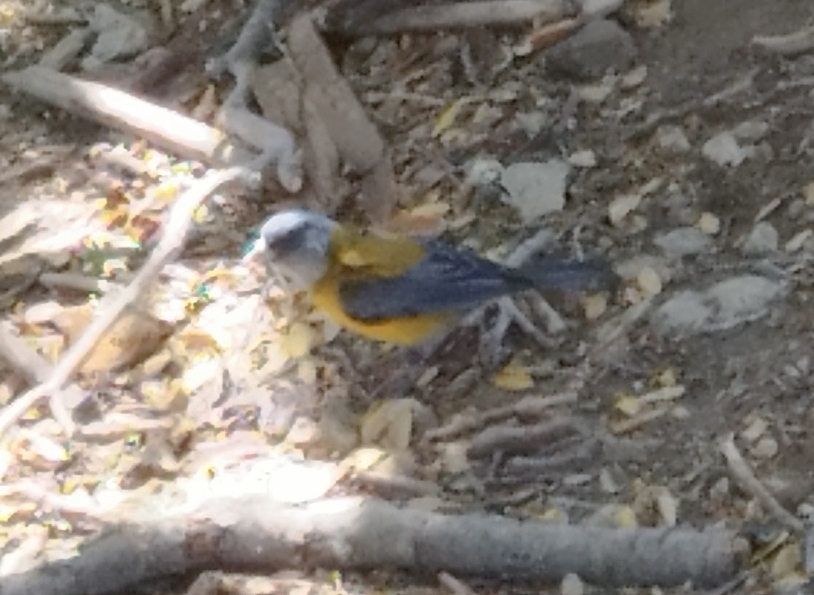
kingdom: Animalia
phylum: Chordata
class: Aves
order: Passeriformes
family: Thraupidae
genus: Phrygilus
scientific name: Phrygilus patagonicus
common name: Patagonian sierra finch
